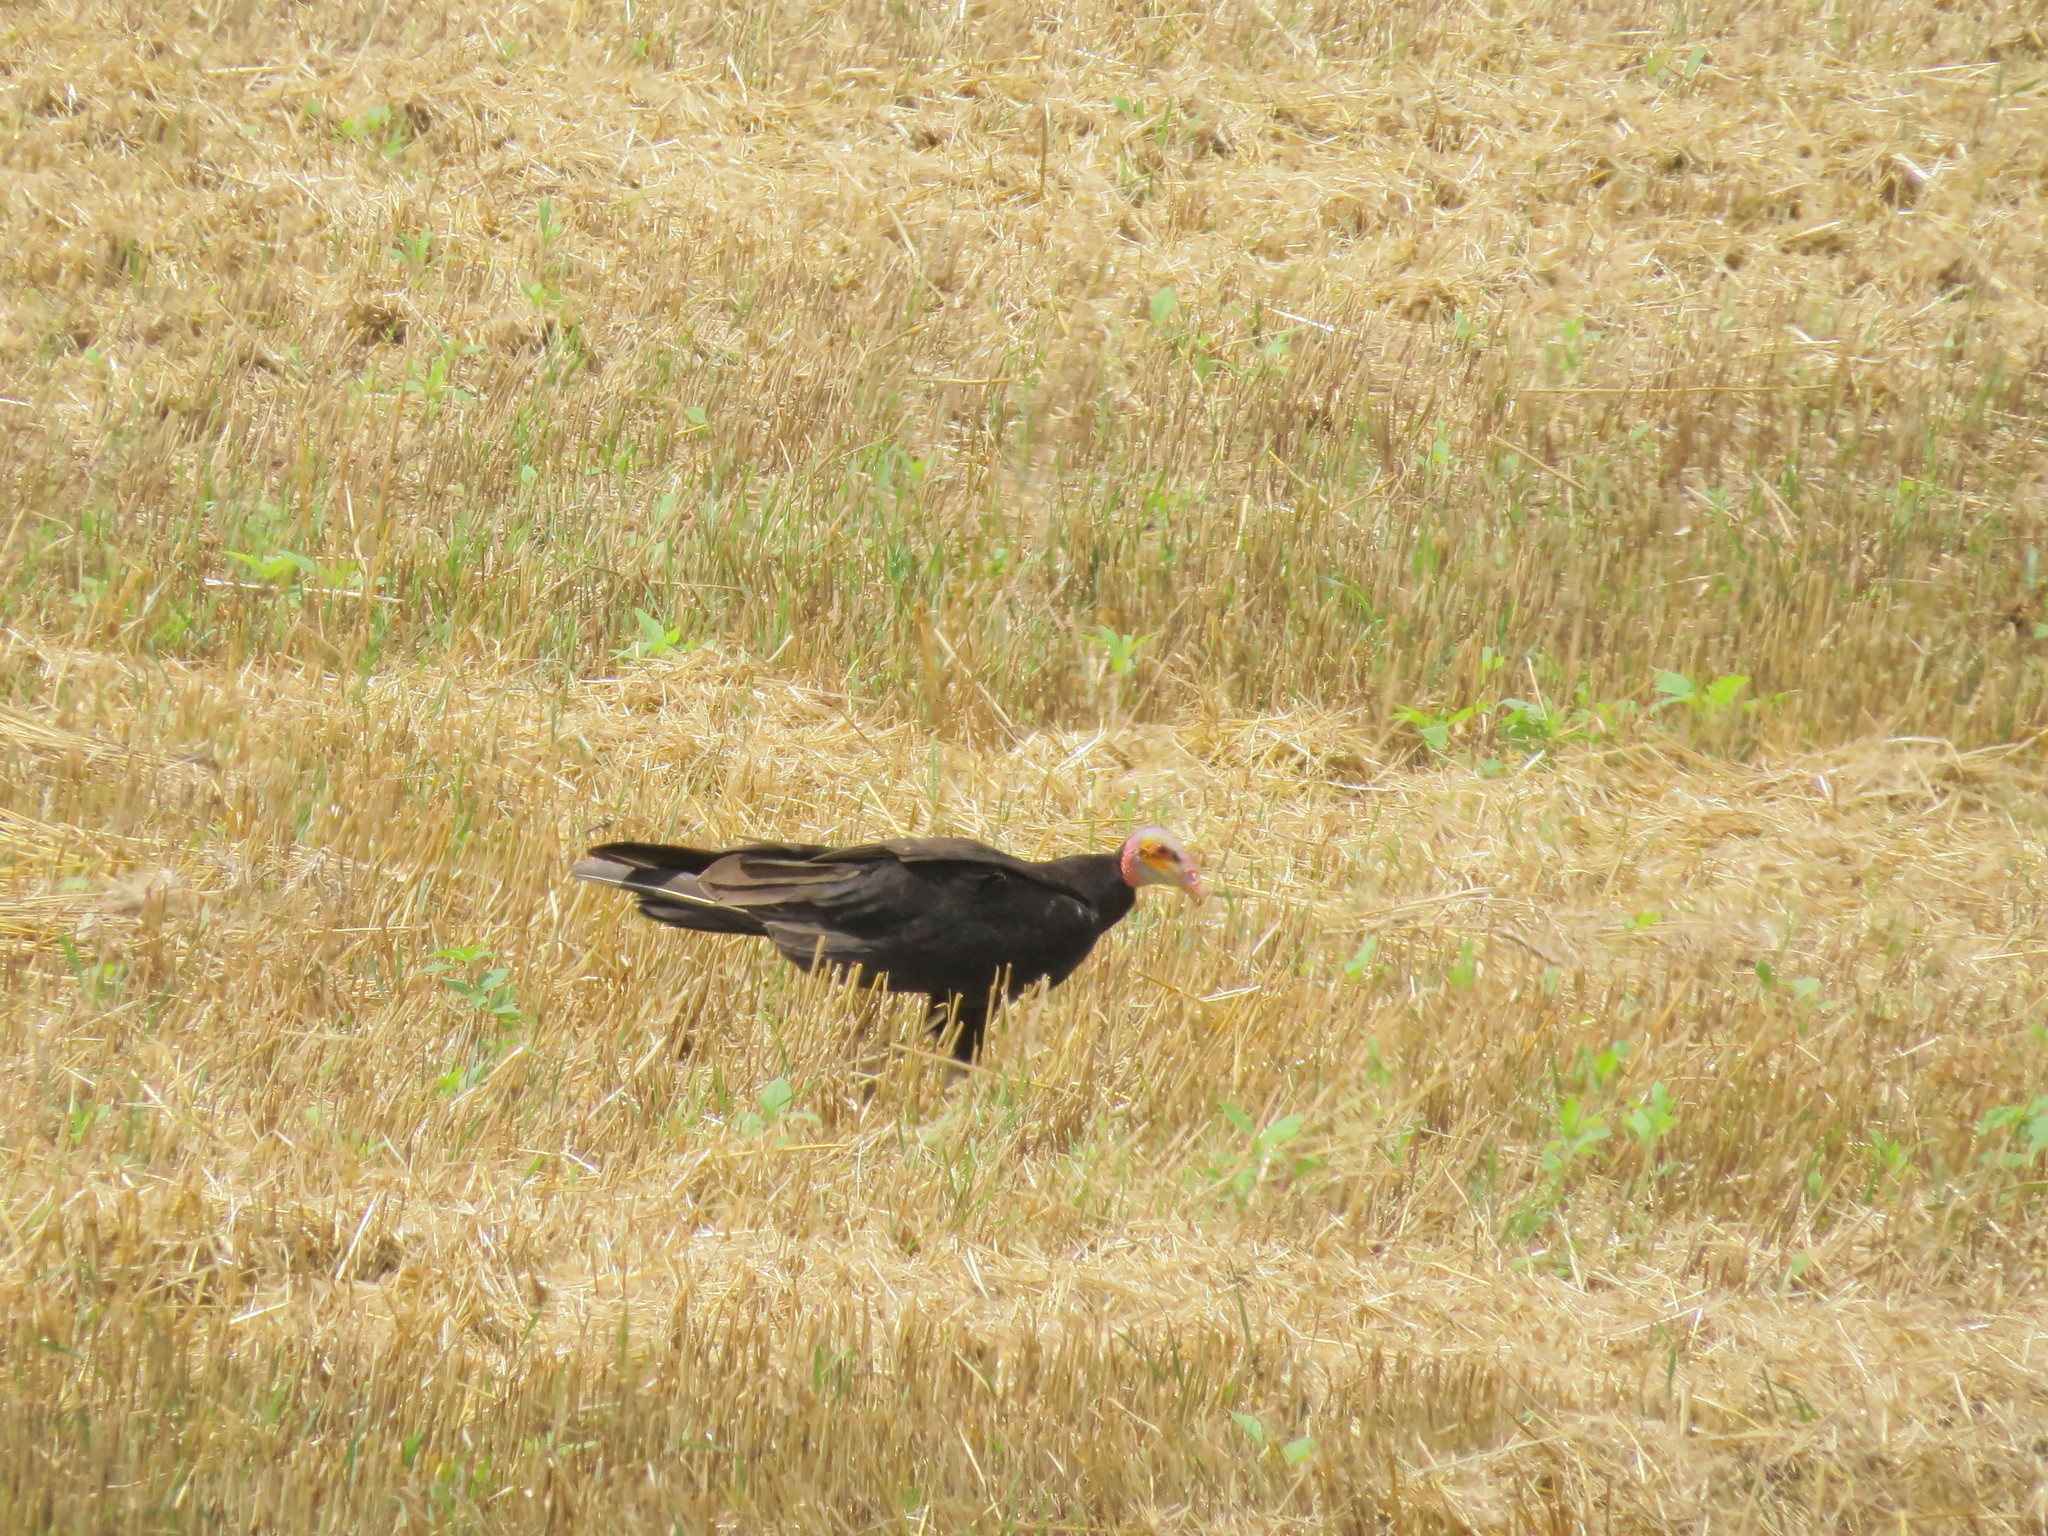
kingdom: Animalia
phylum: Chordata
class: Aves
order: Accipitriformes
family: Cathartidae
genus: Cathartes
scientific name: Cathartes burrovianus
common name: Lesser yellow-headed vulture
